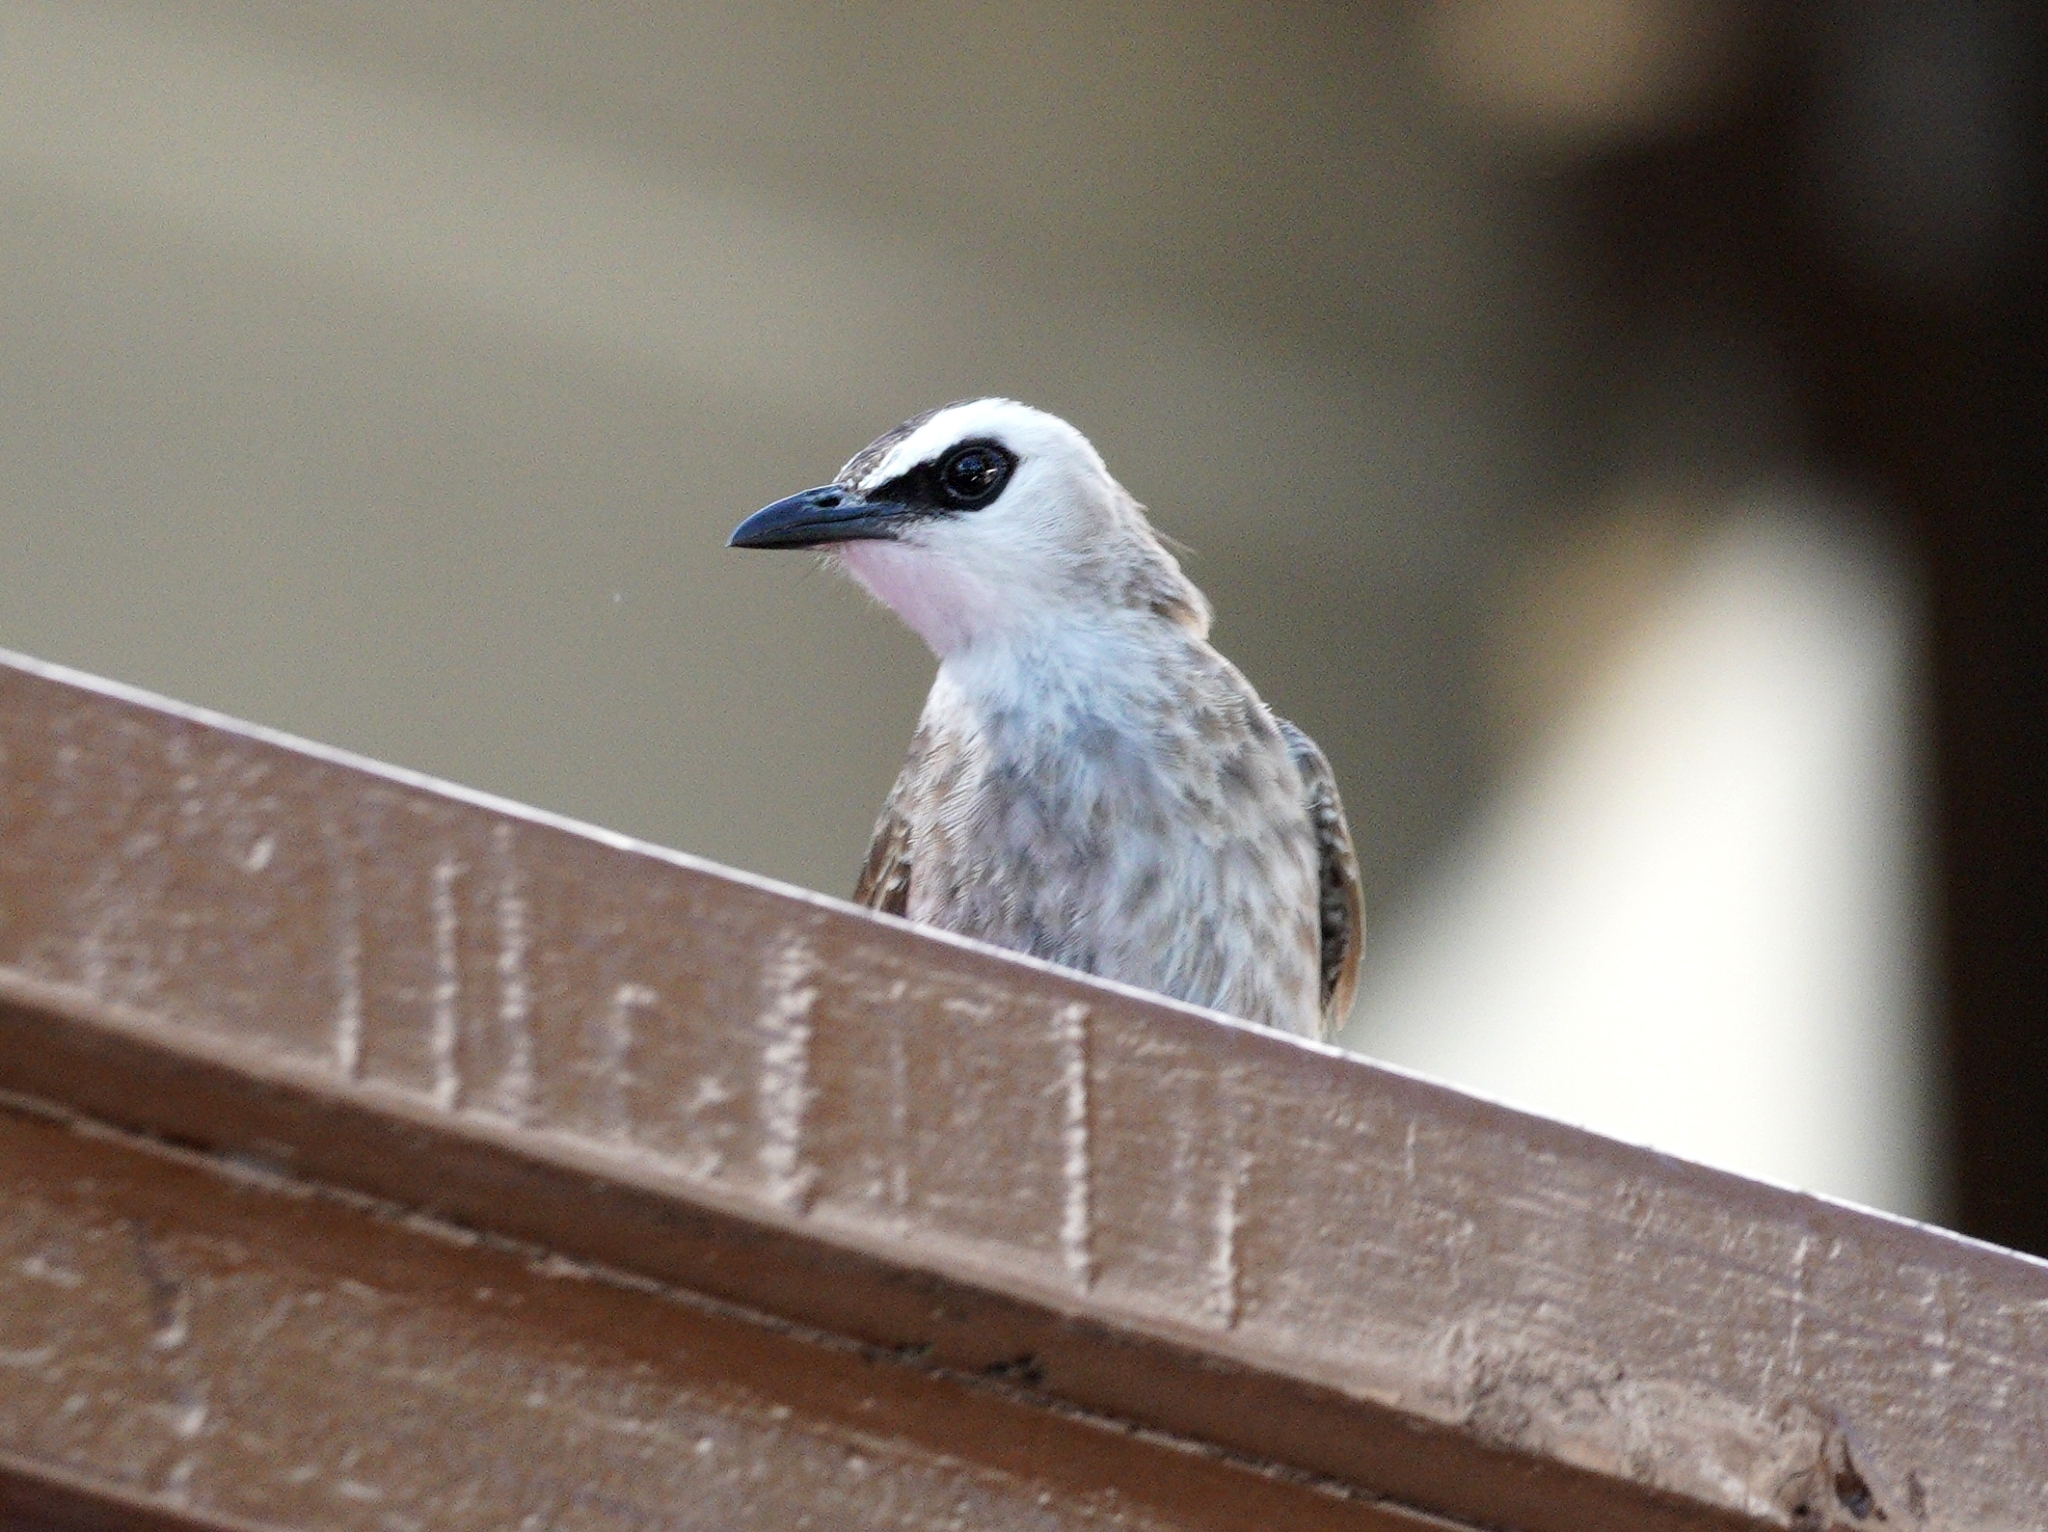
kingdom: Animalia
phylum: Chordata
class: Aves
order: Passeriformes
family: Pycnonotidae
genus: Pycnonotus
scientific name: Pycnonotus goiavier
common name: Yellow-vented bulbul
